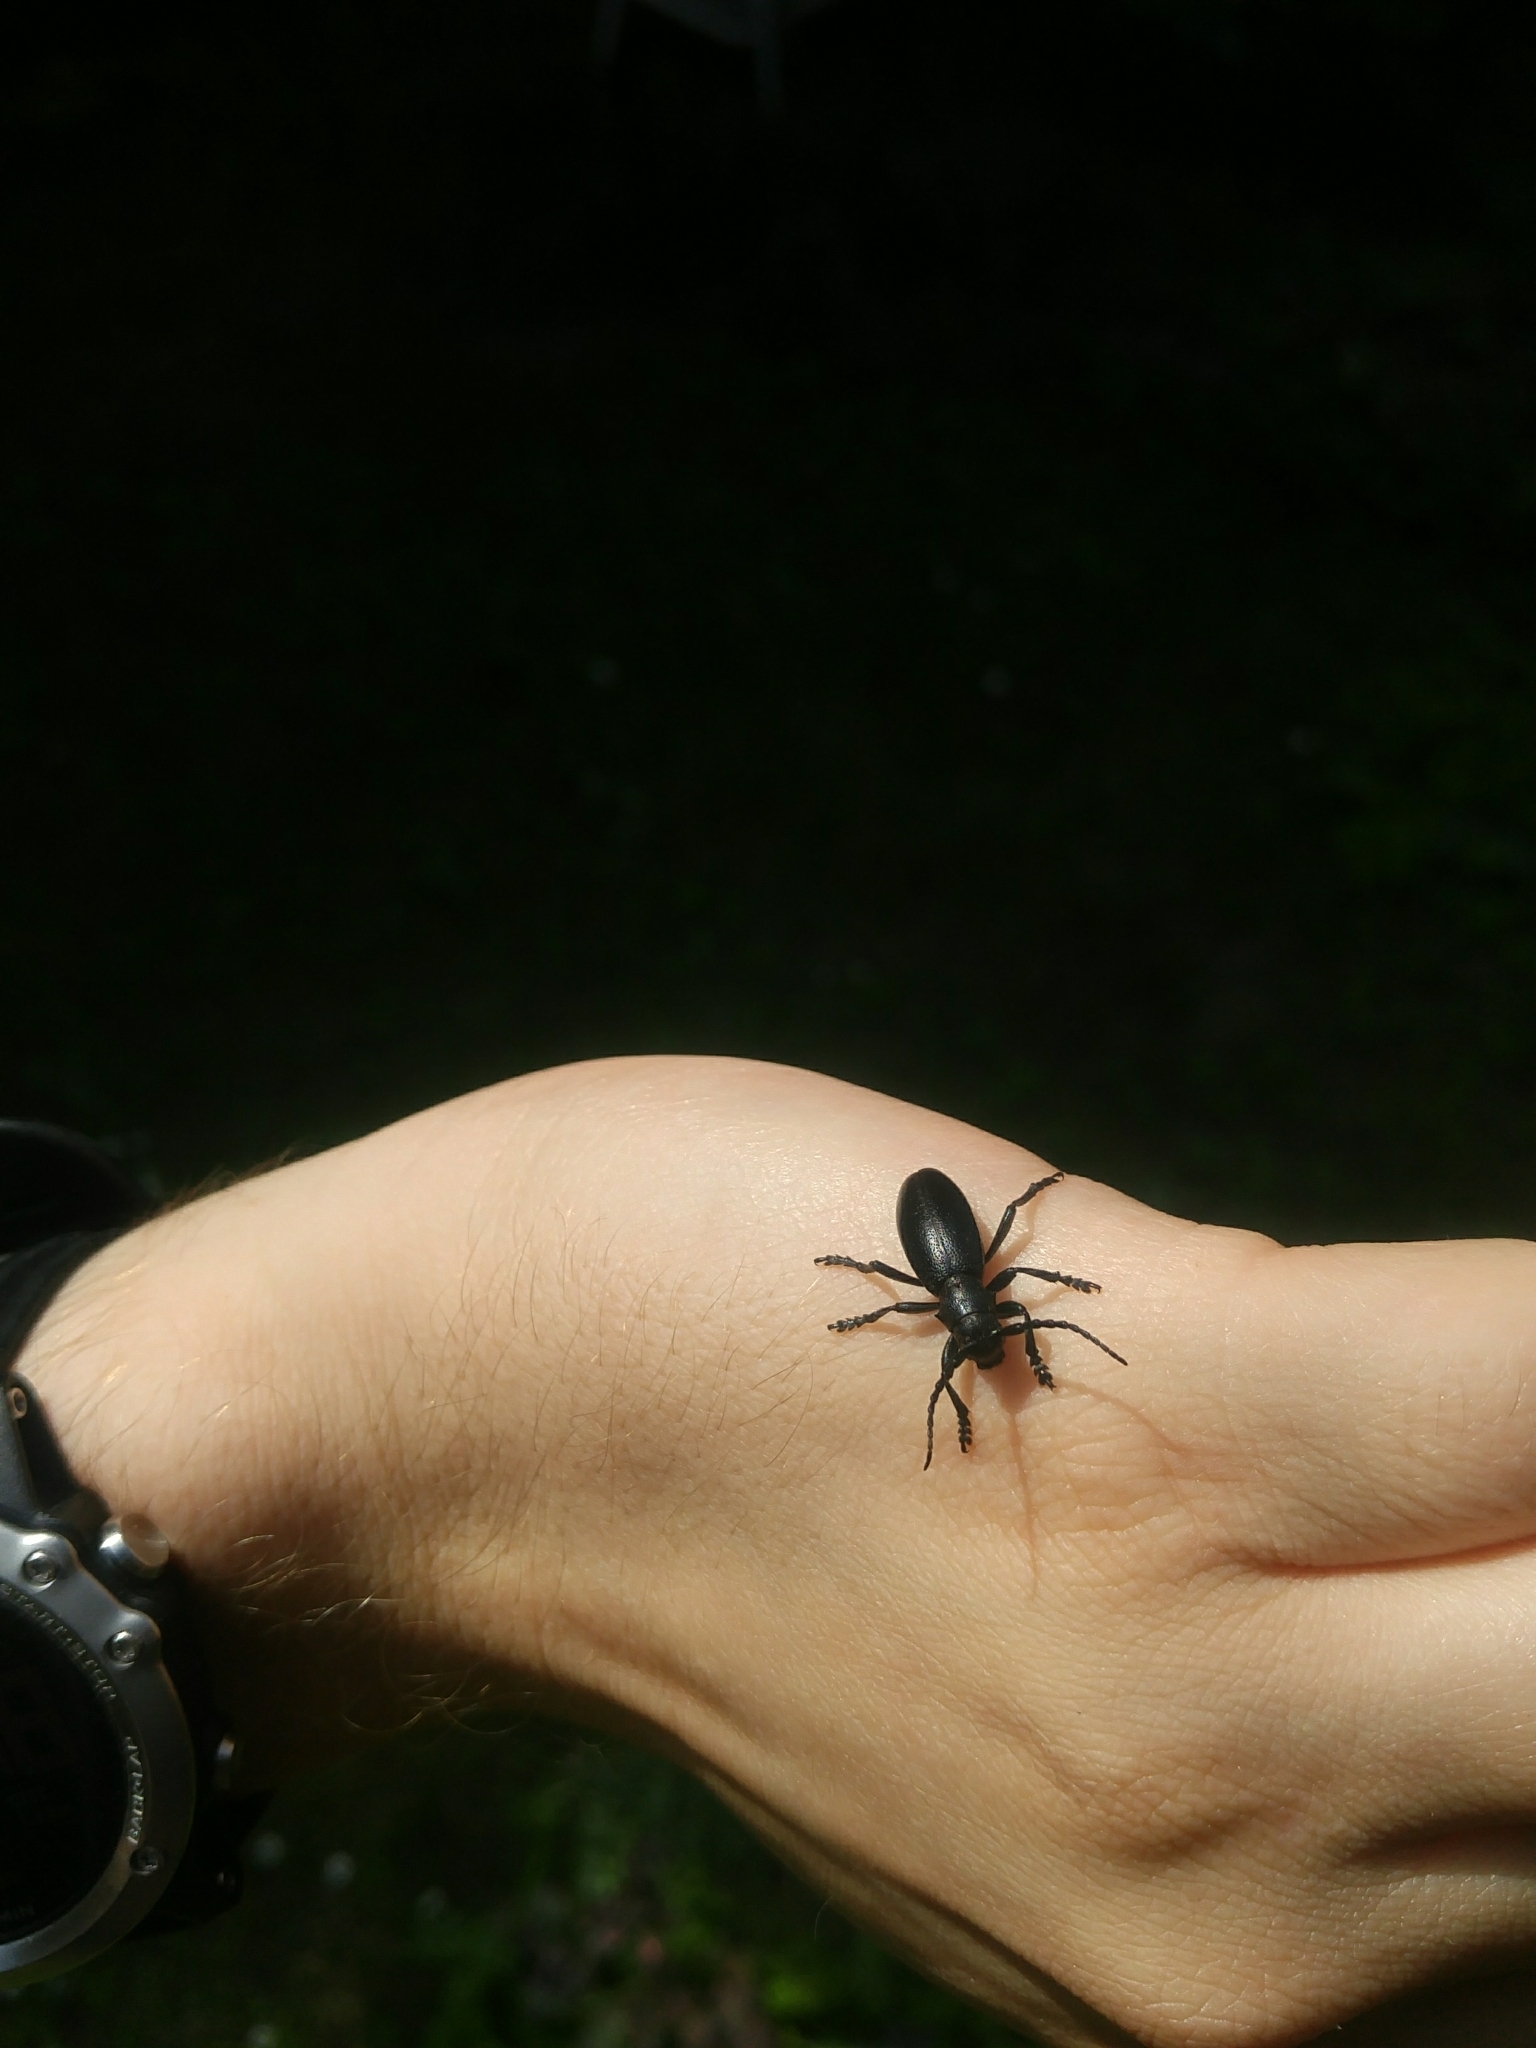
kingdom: Animalia
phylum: Arthropoda
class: Insecta
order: Coleoptera
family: Cerambycidae
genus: Dorcadion
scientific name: Dorcadion aethiops
